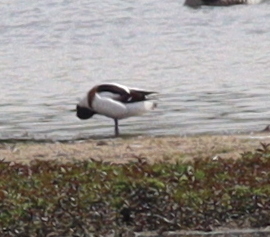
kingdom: Animalia
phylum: Chordata
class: Aves
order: Anseriformes
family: Anatidae
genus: Tadorna
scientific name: Tadorna tadorna
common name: Common shelduck
